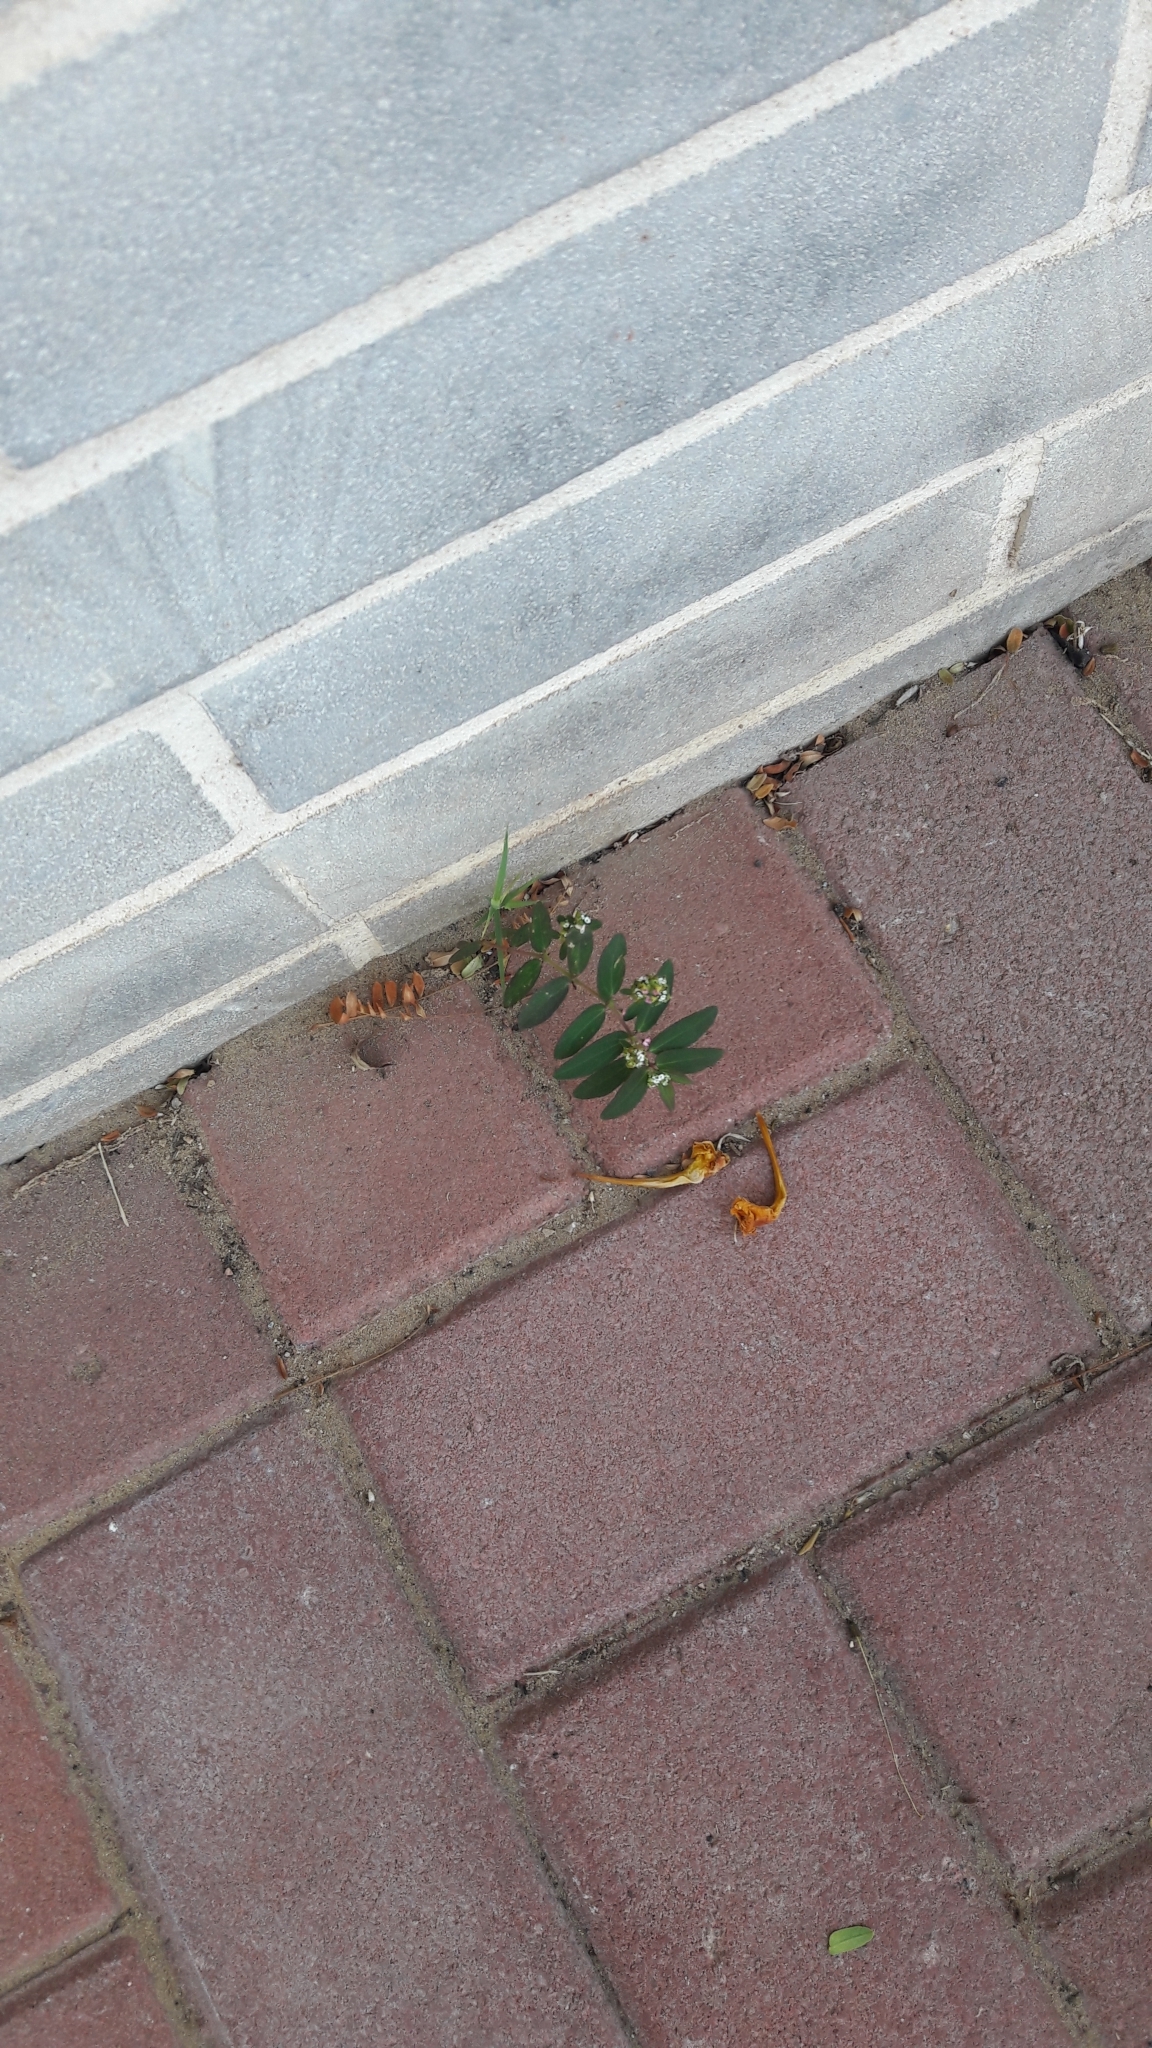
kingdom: Plantae
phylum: Tracheophyta
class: Magnoliopsida
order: Malpighiales
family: Euphorbiaceae
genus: Euphorbia
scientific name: Euphorbia hypericifolia
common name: Graceful sandmat
